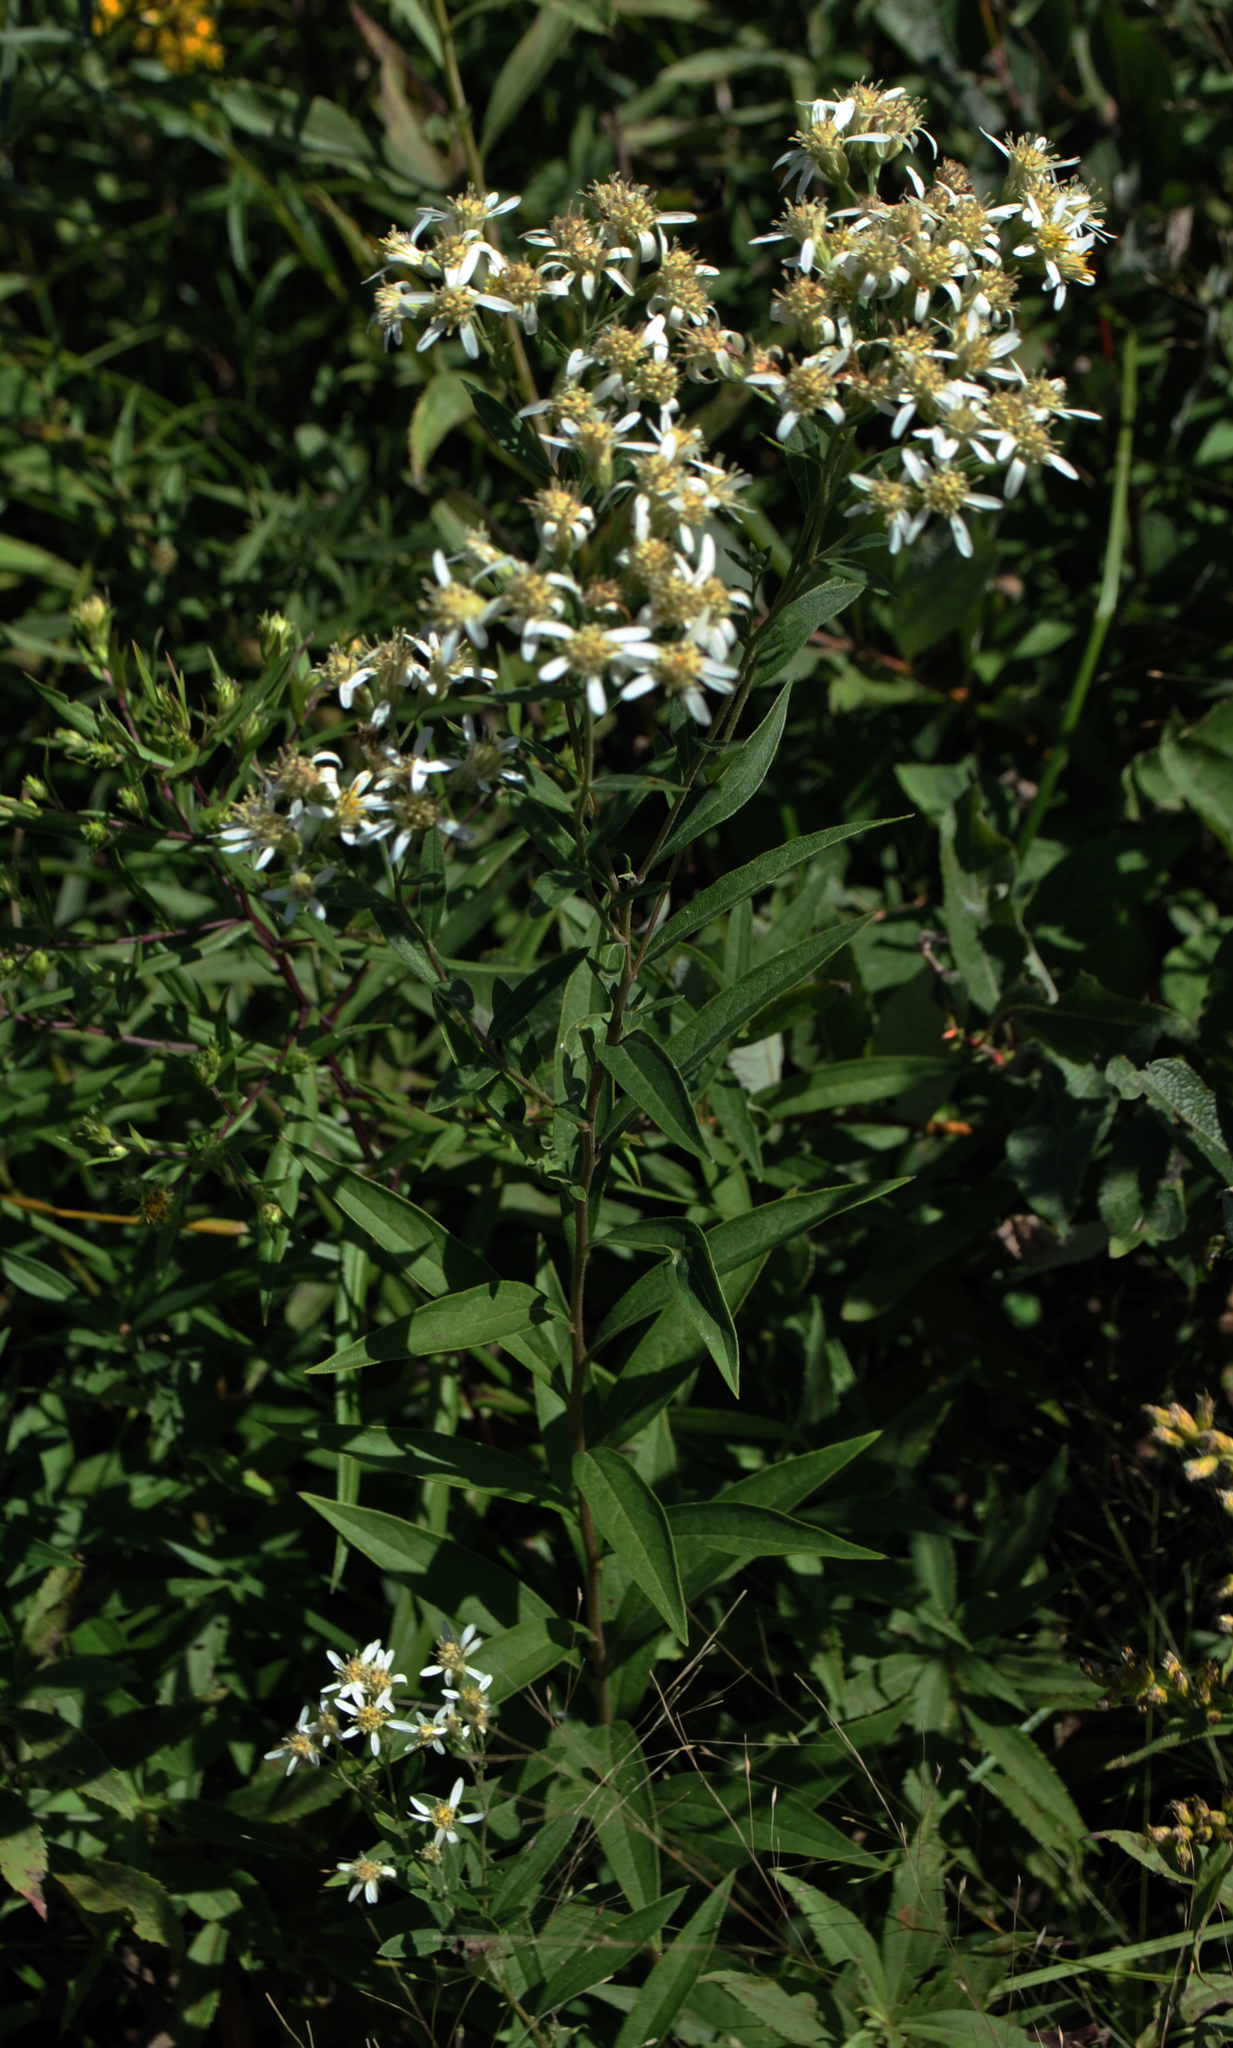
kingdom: Plantae
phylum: Tracheophyta
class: Magnoliopsida
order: Asterales
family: Asteraceae
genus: Doellingeria
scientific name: Doellingeria umbellata
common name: Flat-top white aster
